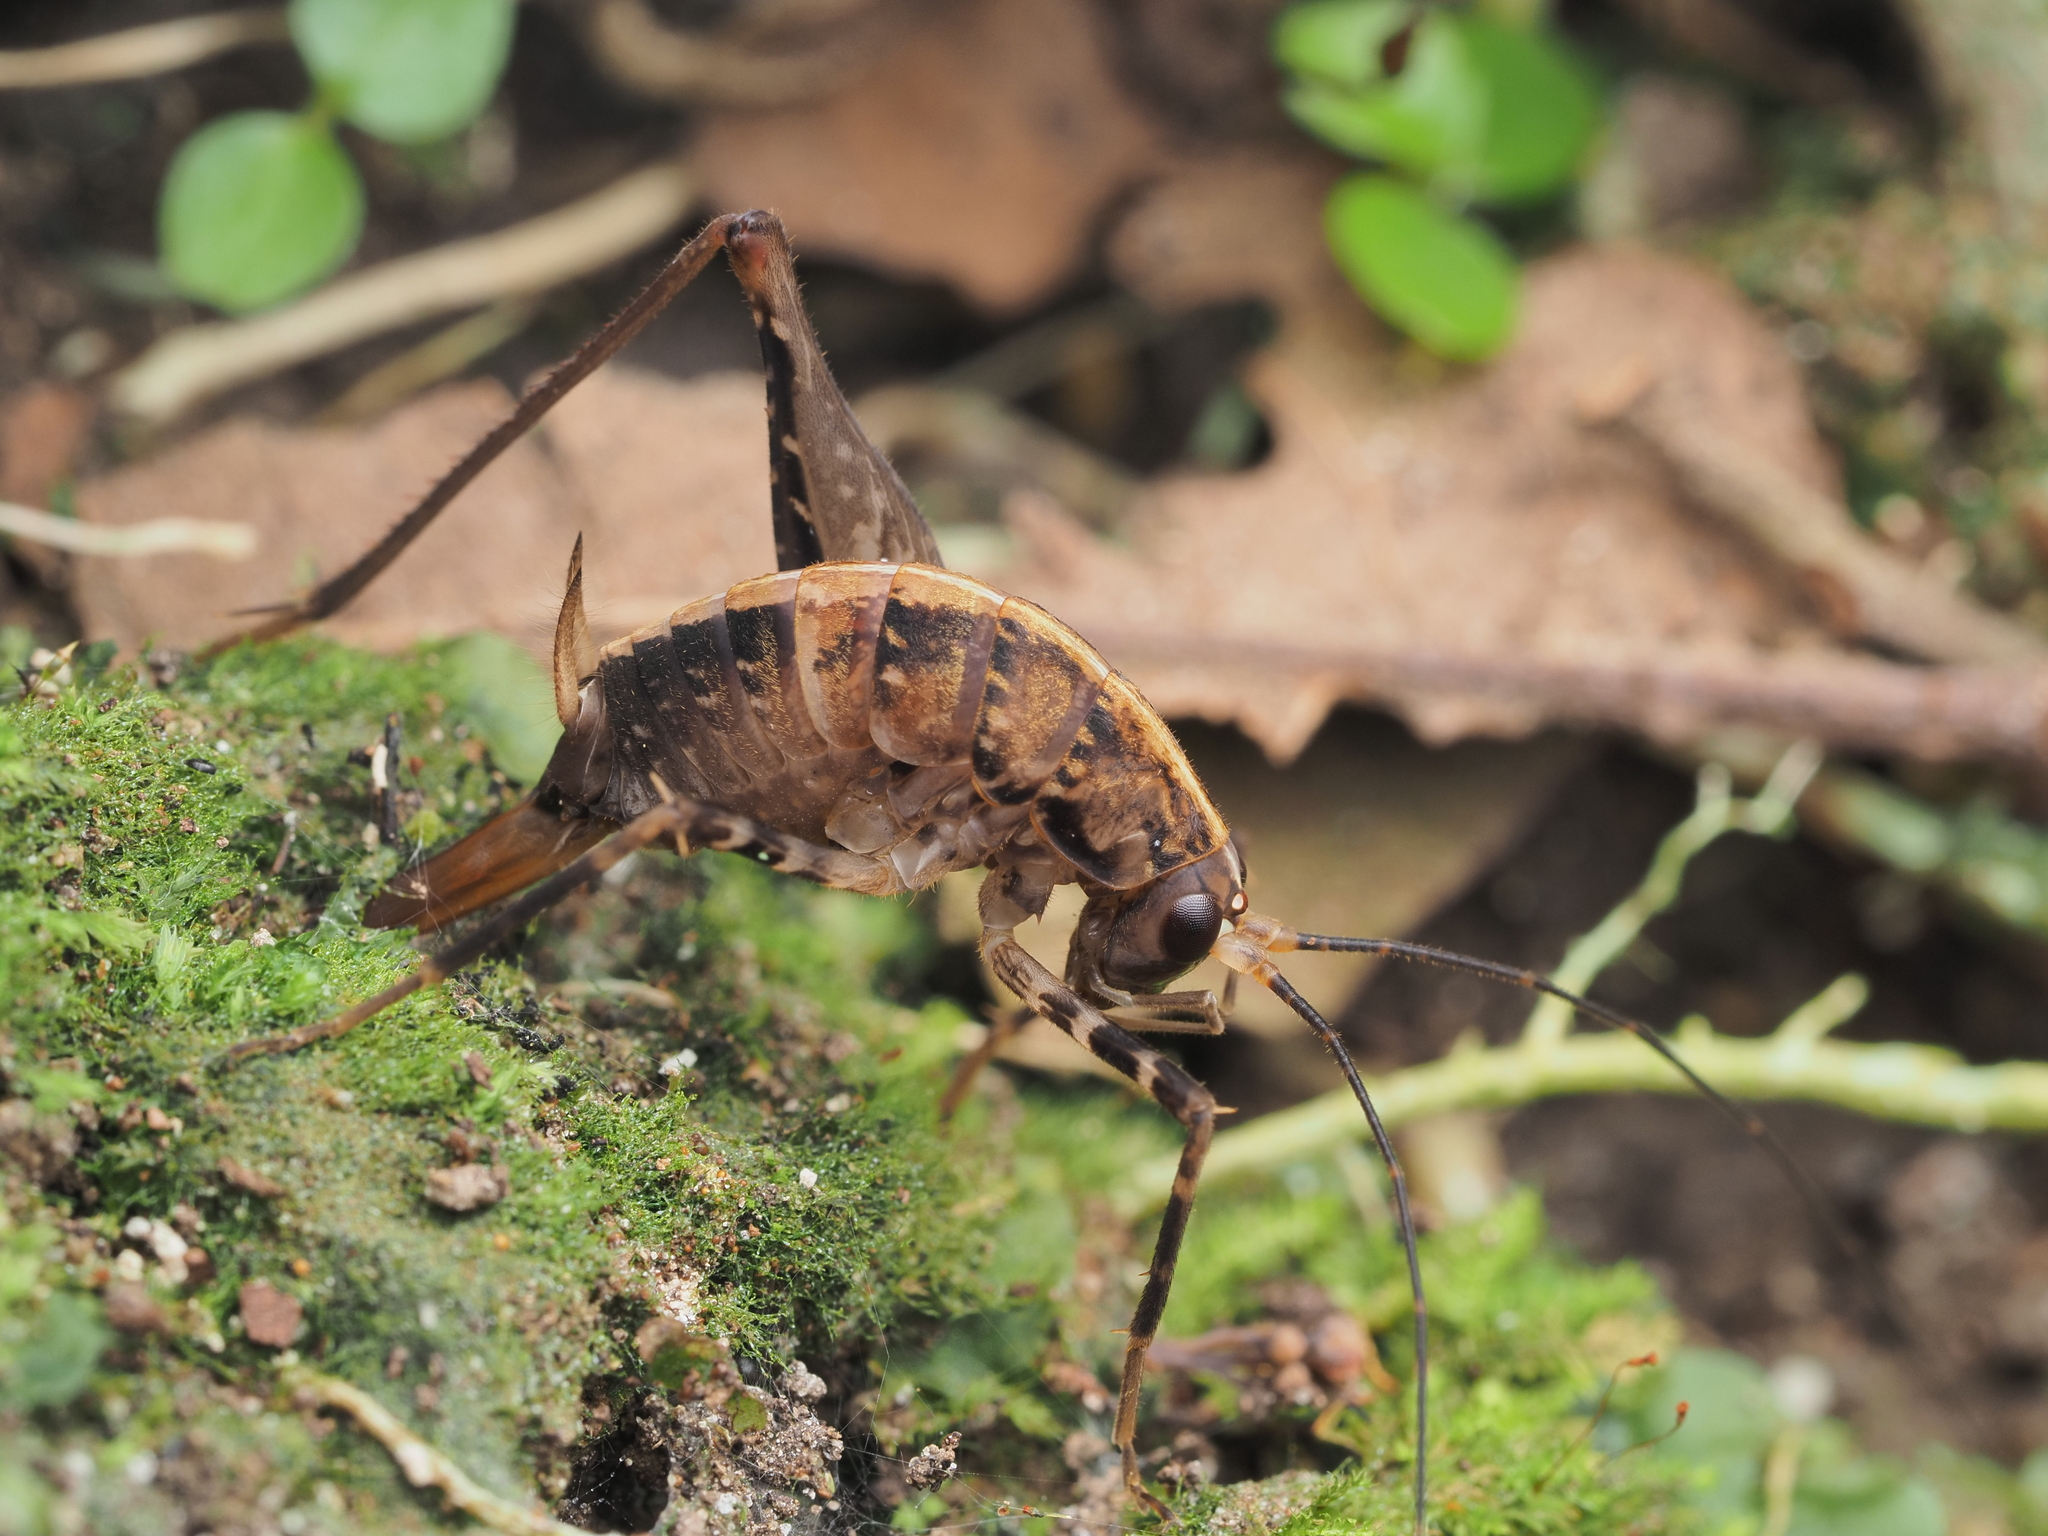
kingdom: Animalia
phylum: Arthropoda
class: Insecta
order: Orthoptera
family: Rhaphidophoridae
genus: Pleioplectron
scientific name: Pleioplectron hudsoni
